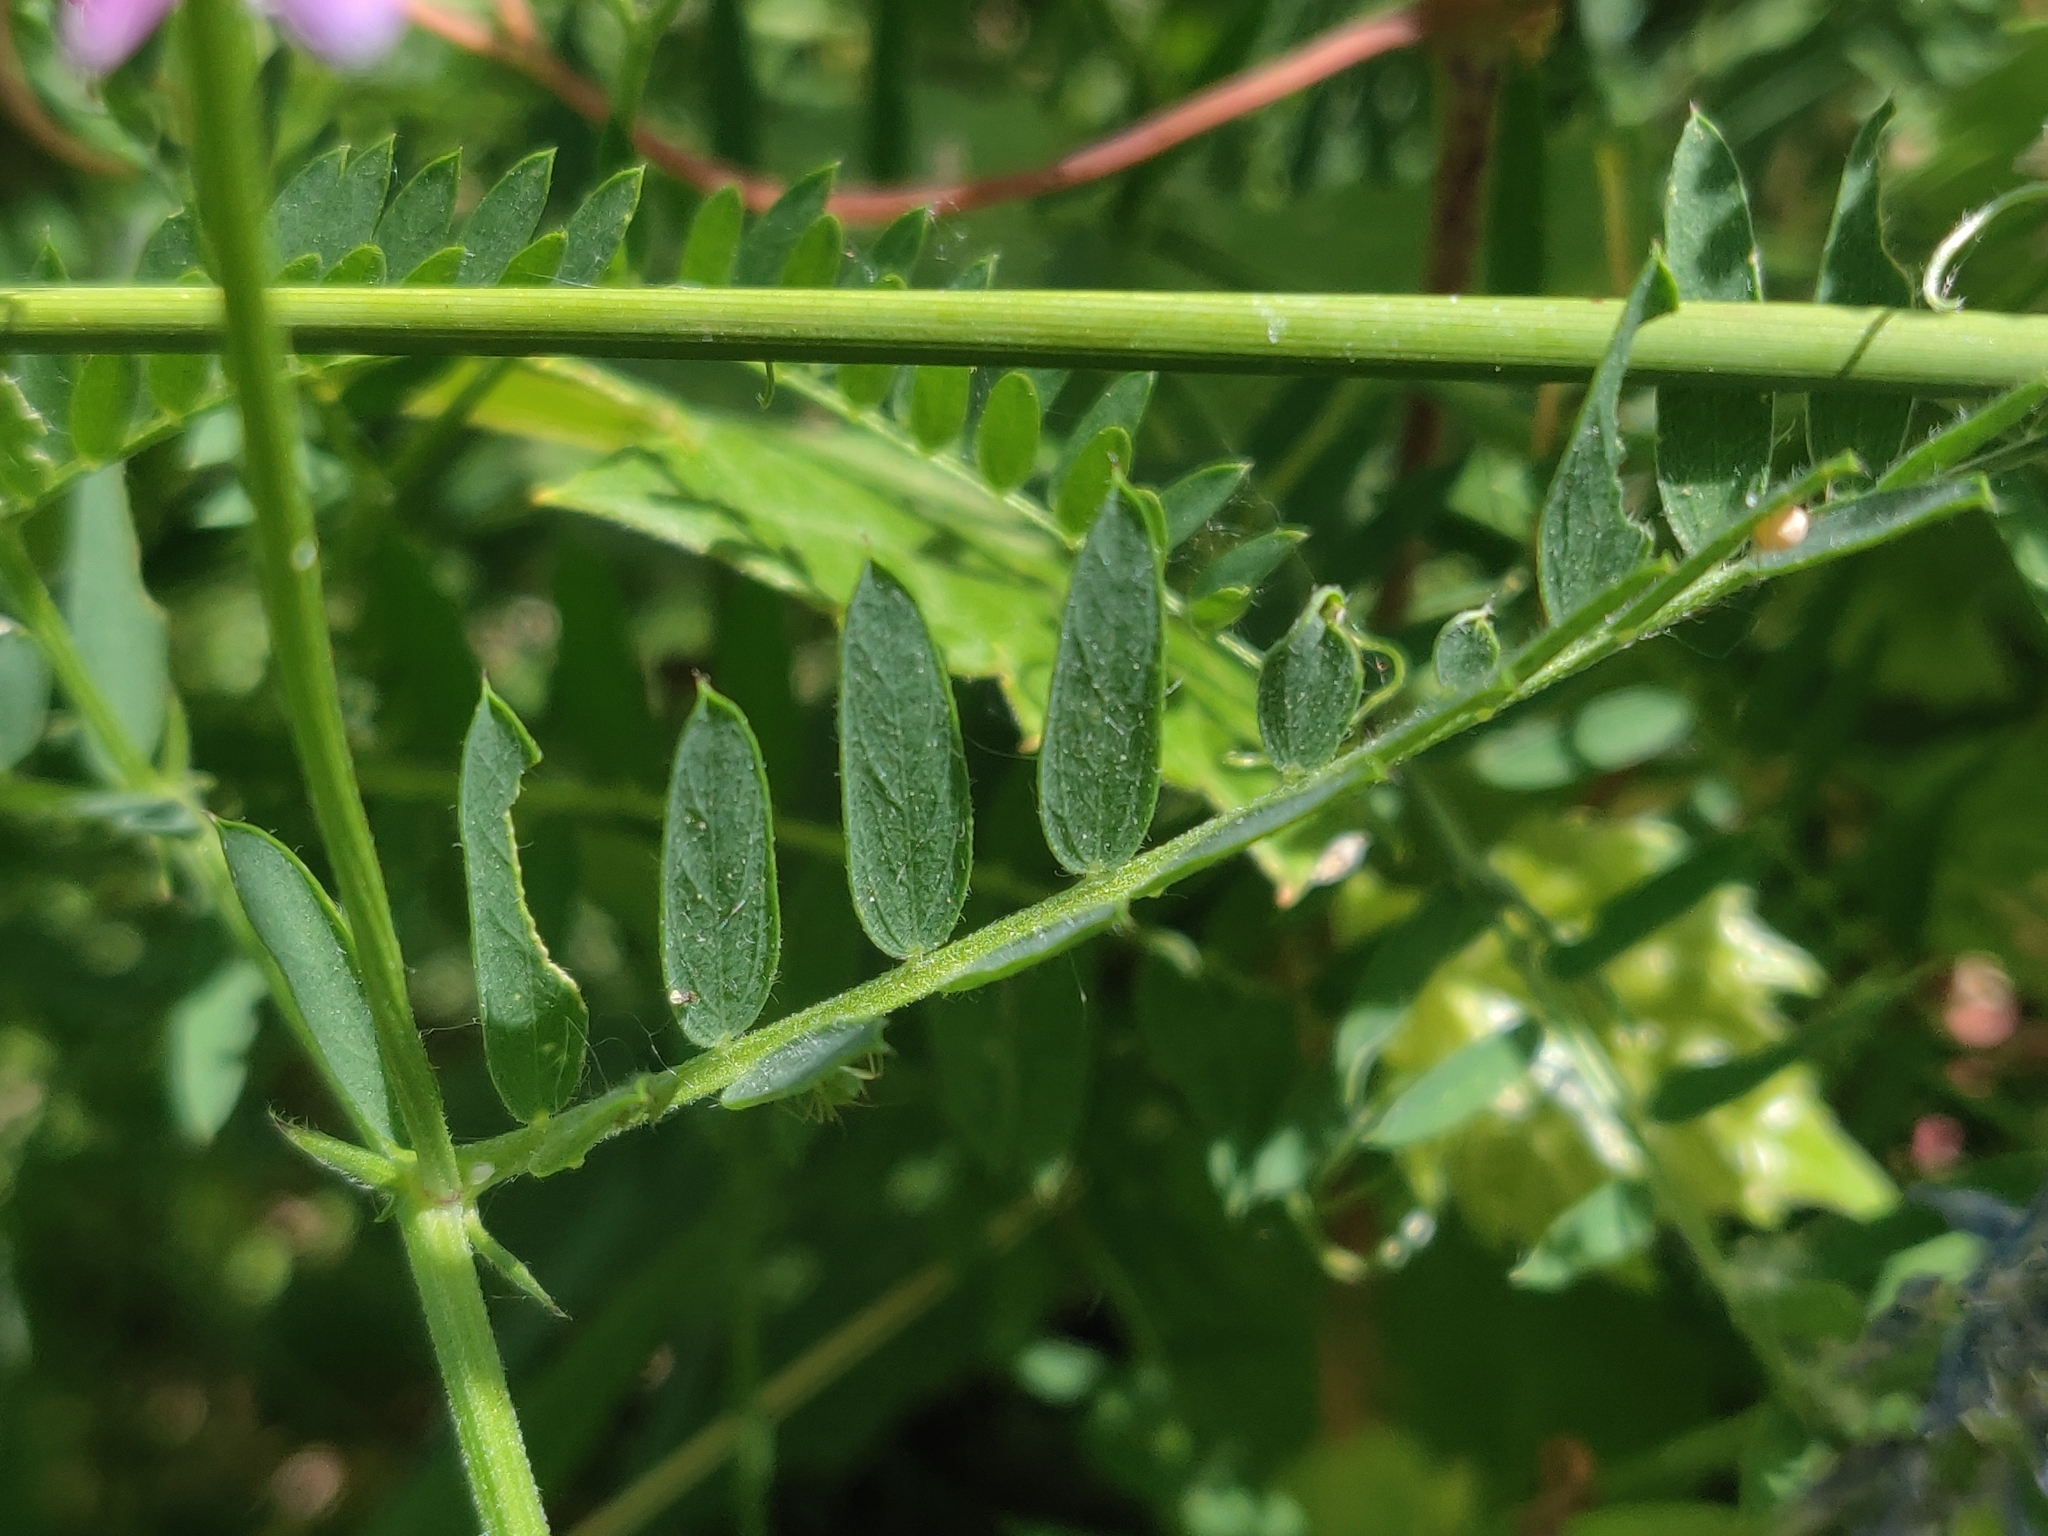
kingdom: Plantae
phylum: Tracheophyta
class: Magnoliopsida
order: Fabales
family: Fabaceae
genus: Vicia
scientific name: Vicia cracca
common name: Bird vetch
